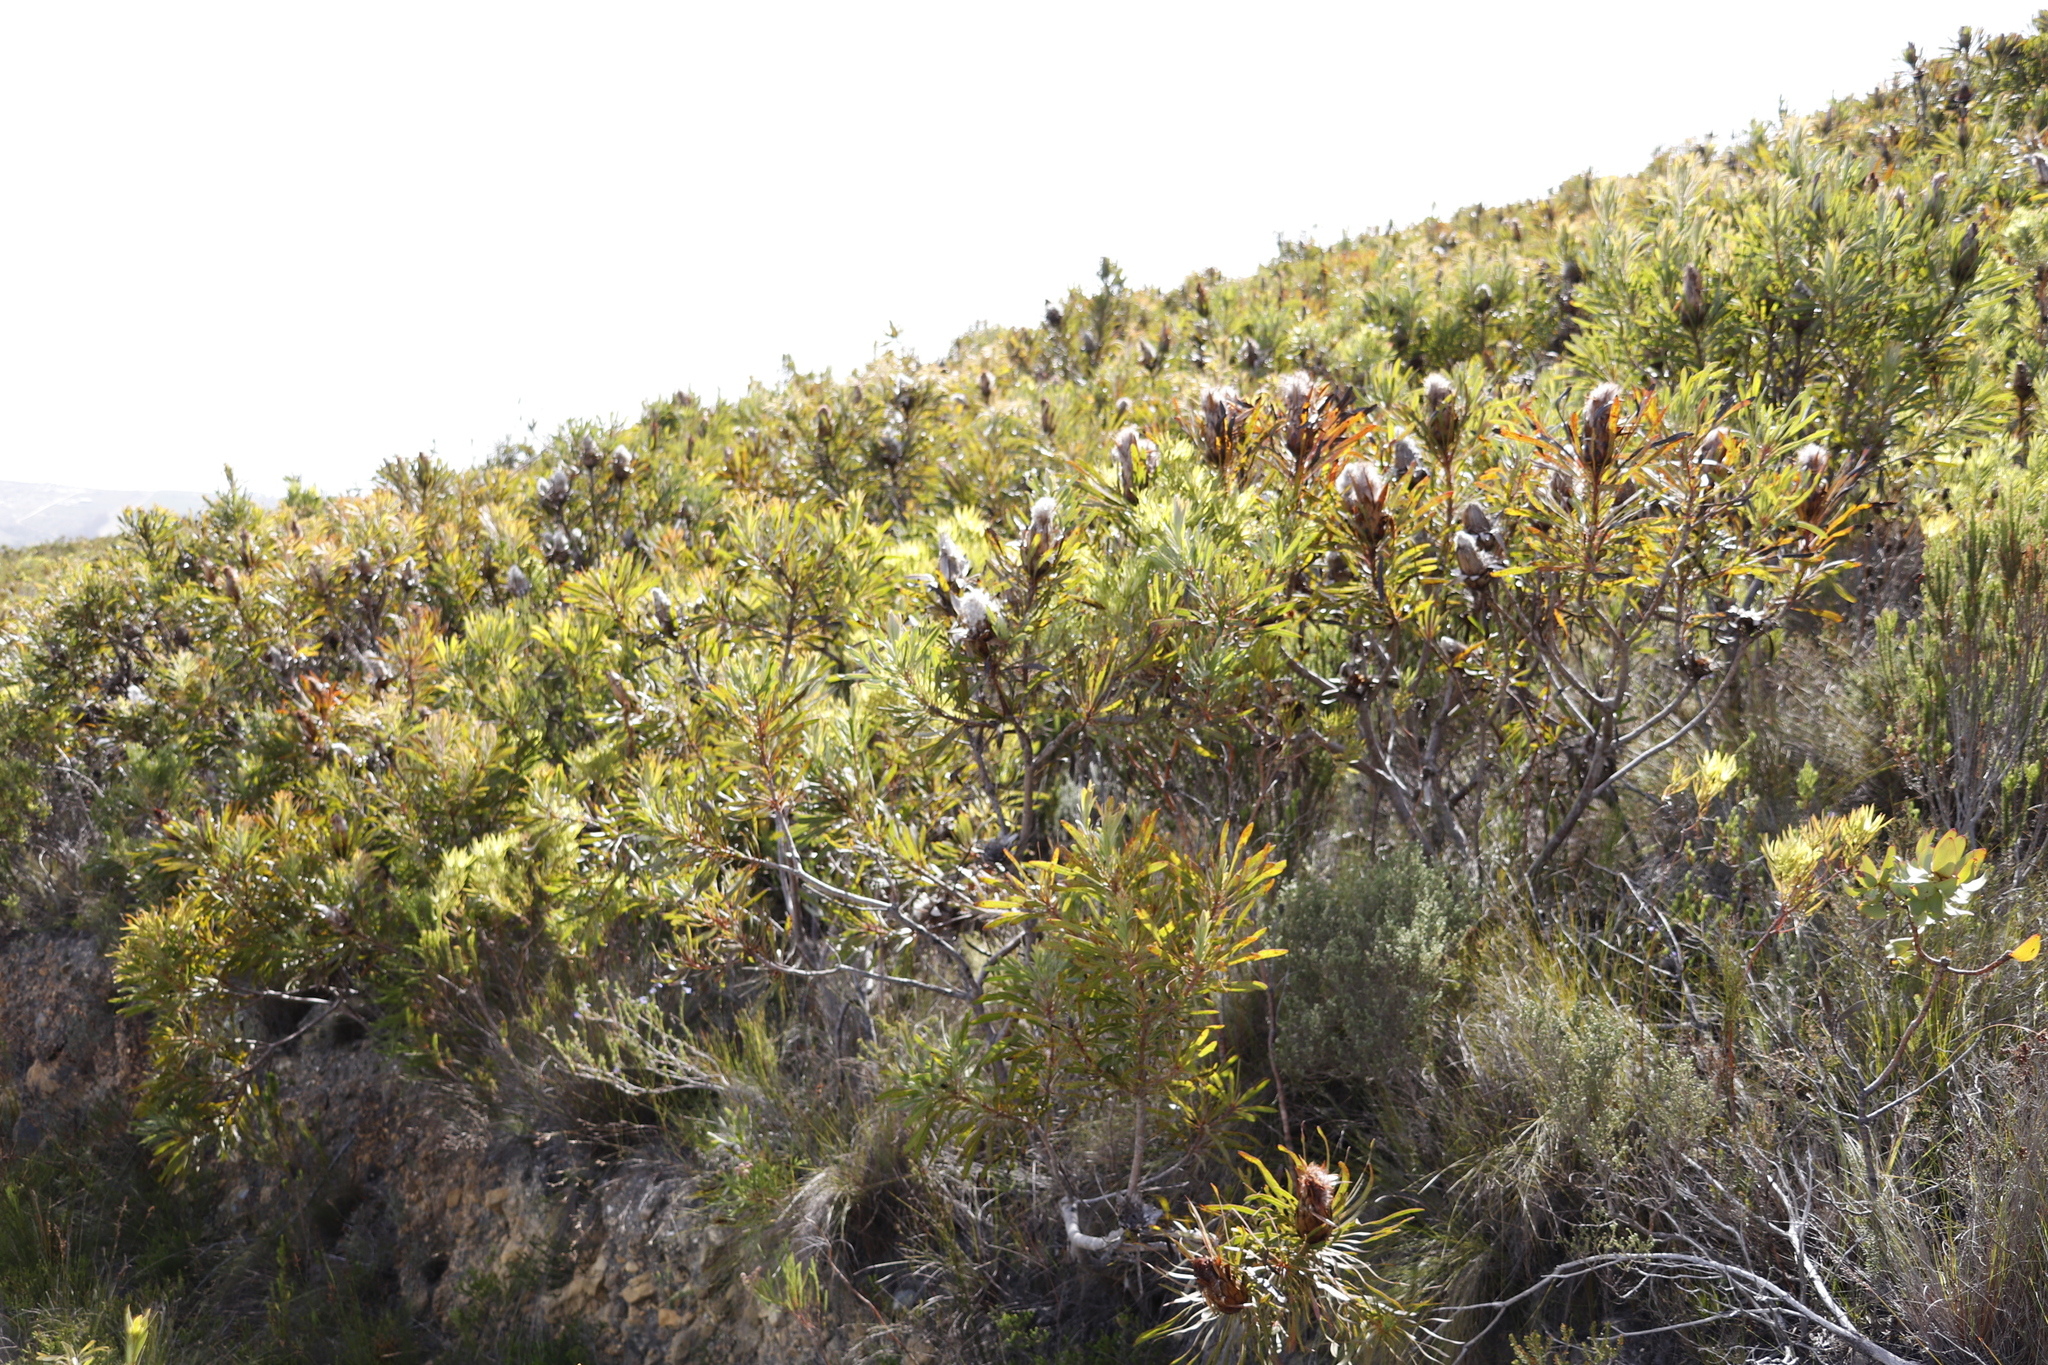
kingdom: Plantae
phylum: Tracheophyta
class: Magnoliopsida
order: Proteales
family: Proteaceae
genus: Protea
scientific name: Protea longifolia
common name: Long-leaf sugarbush
